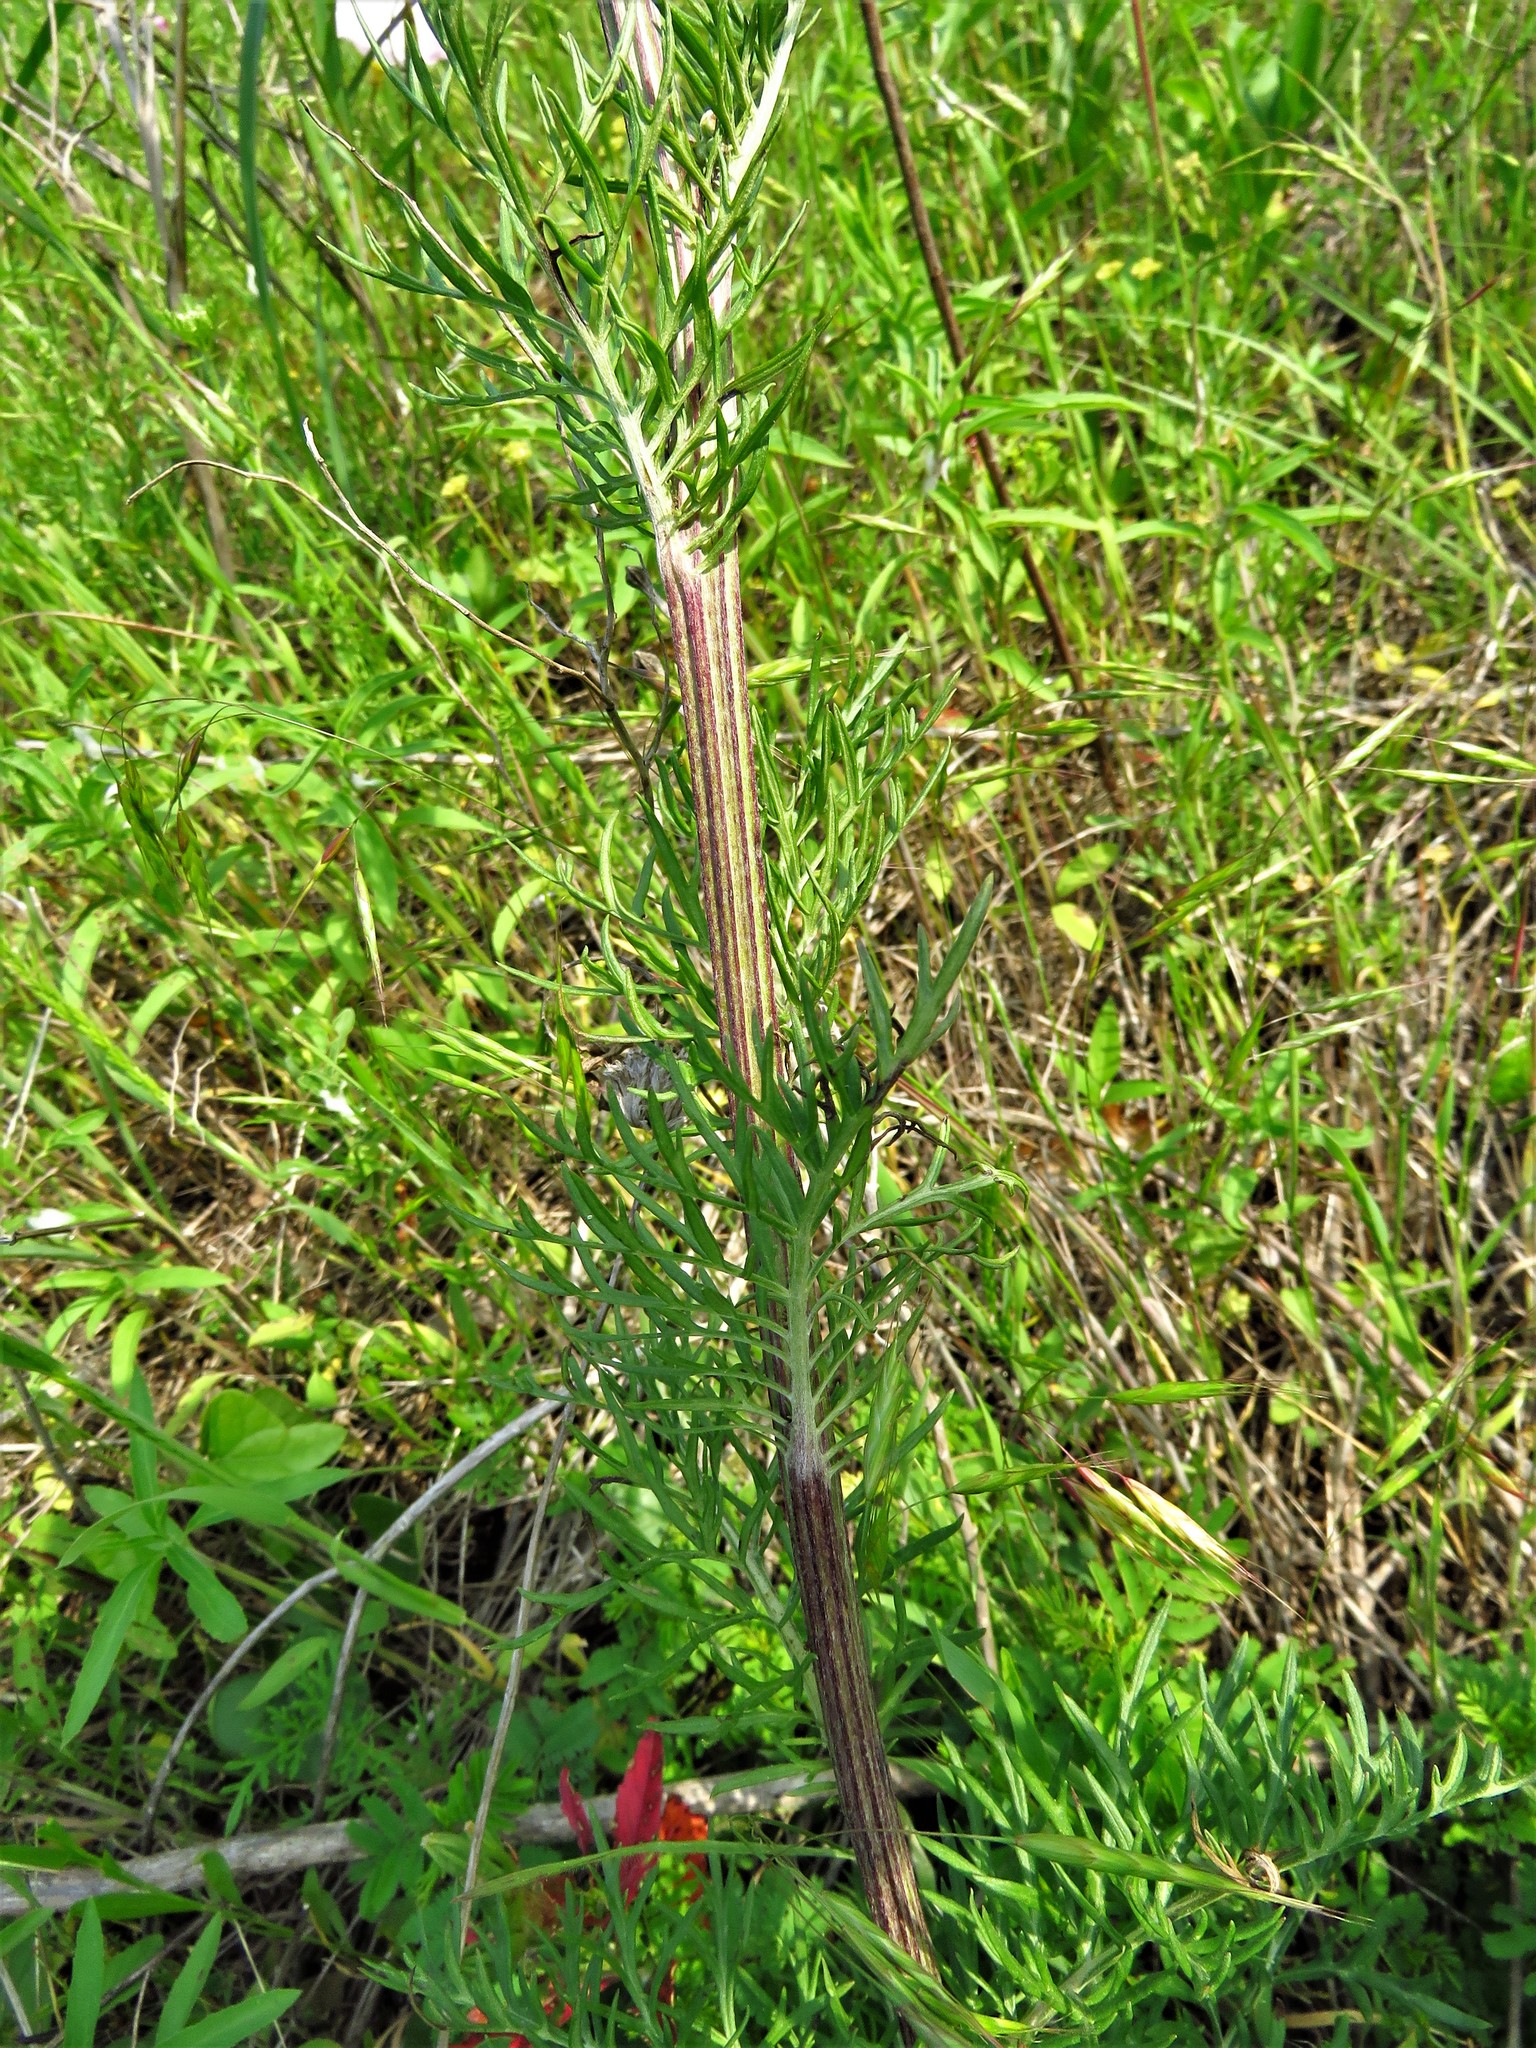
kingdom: Plantae
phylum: Tracheophyta
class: Magnoliopsida
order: Asterales
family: Asteraceae
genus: Hymenopappus
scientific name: Hymenopappus artemisiifolius
